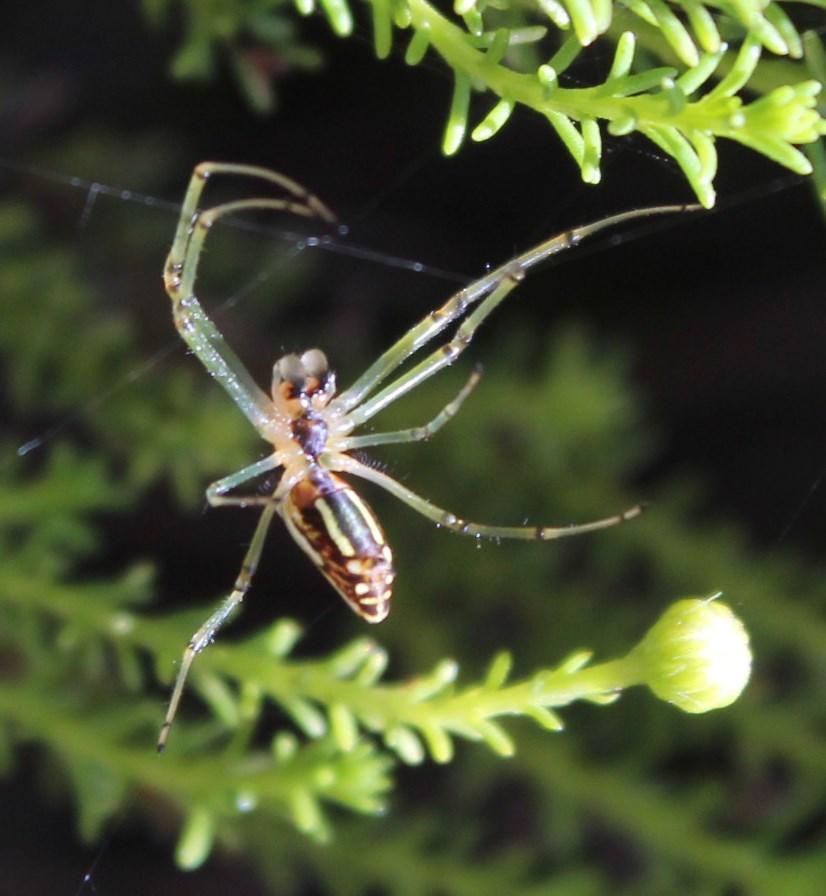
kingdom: Animalia
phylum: Arthropoda
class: Arachnida
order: Araneae
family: Tetragnathidae
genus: Leucauge
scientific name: Leucauge festiva
